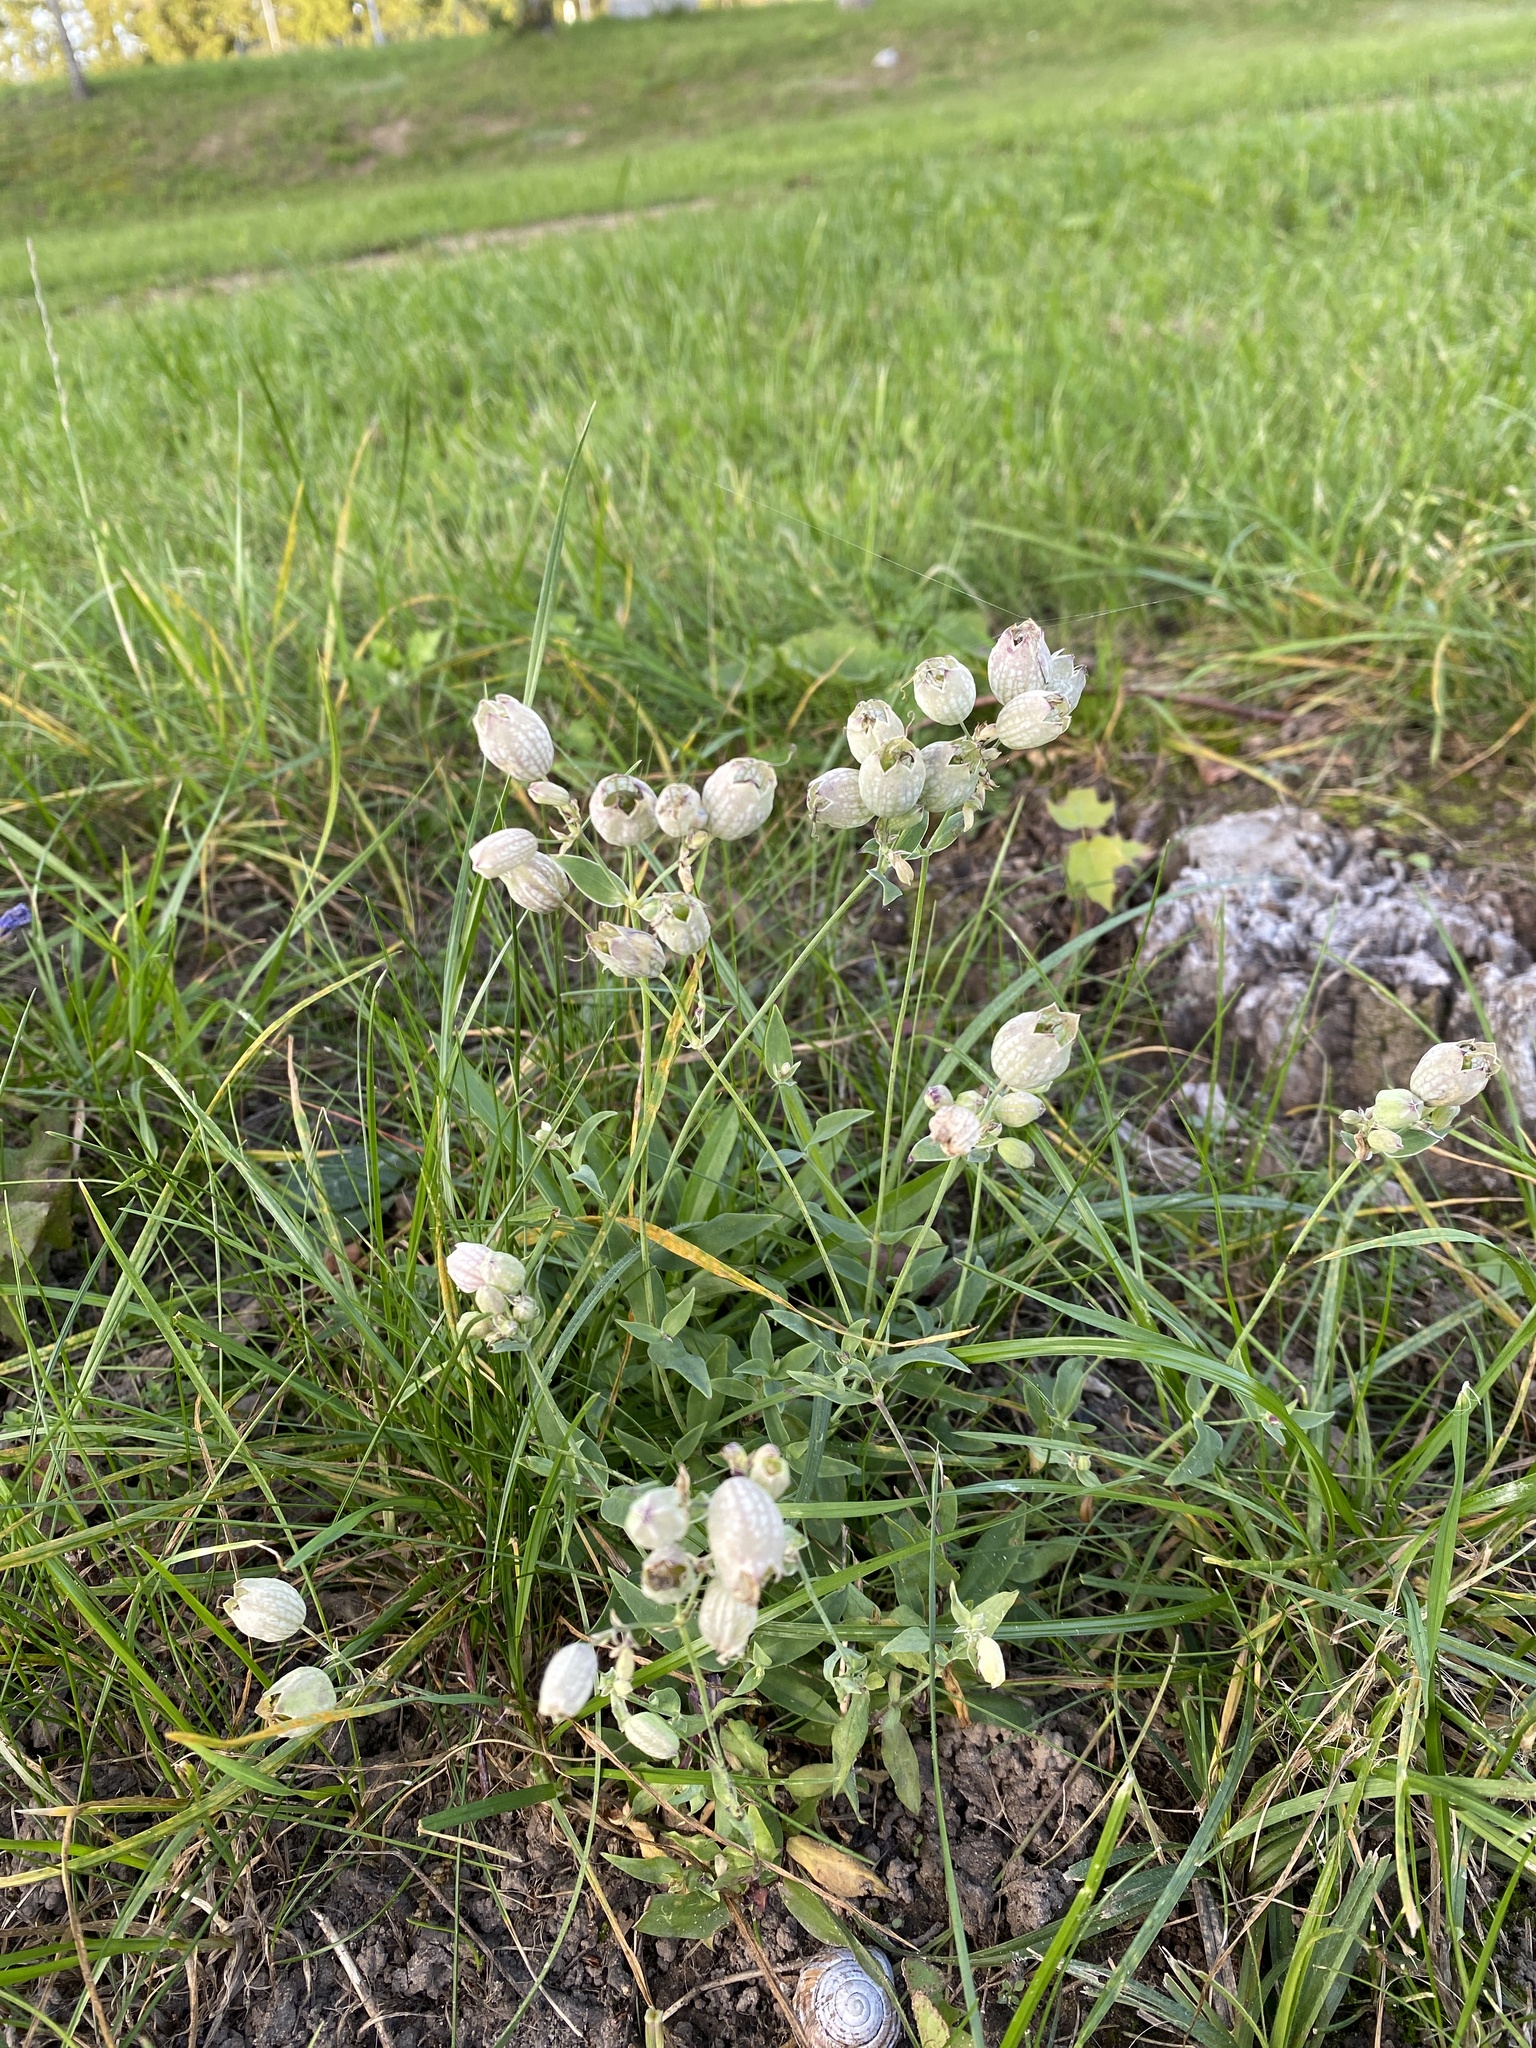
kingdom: Plantae
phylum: Tracheophyta
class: Magnoliopsida
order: Caryophyllales
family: Caryophyllaceae
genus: Silene
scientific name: Silene vulgaris
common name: Bladder campion
